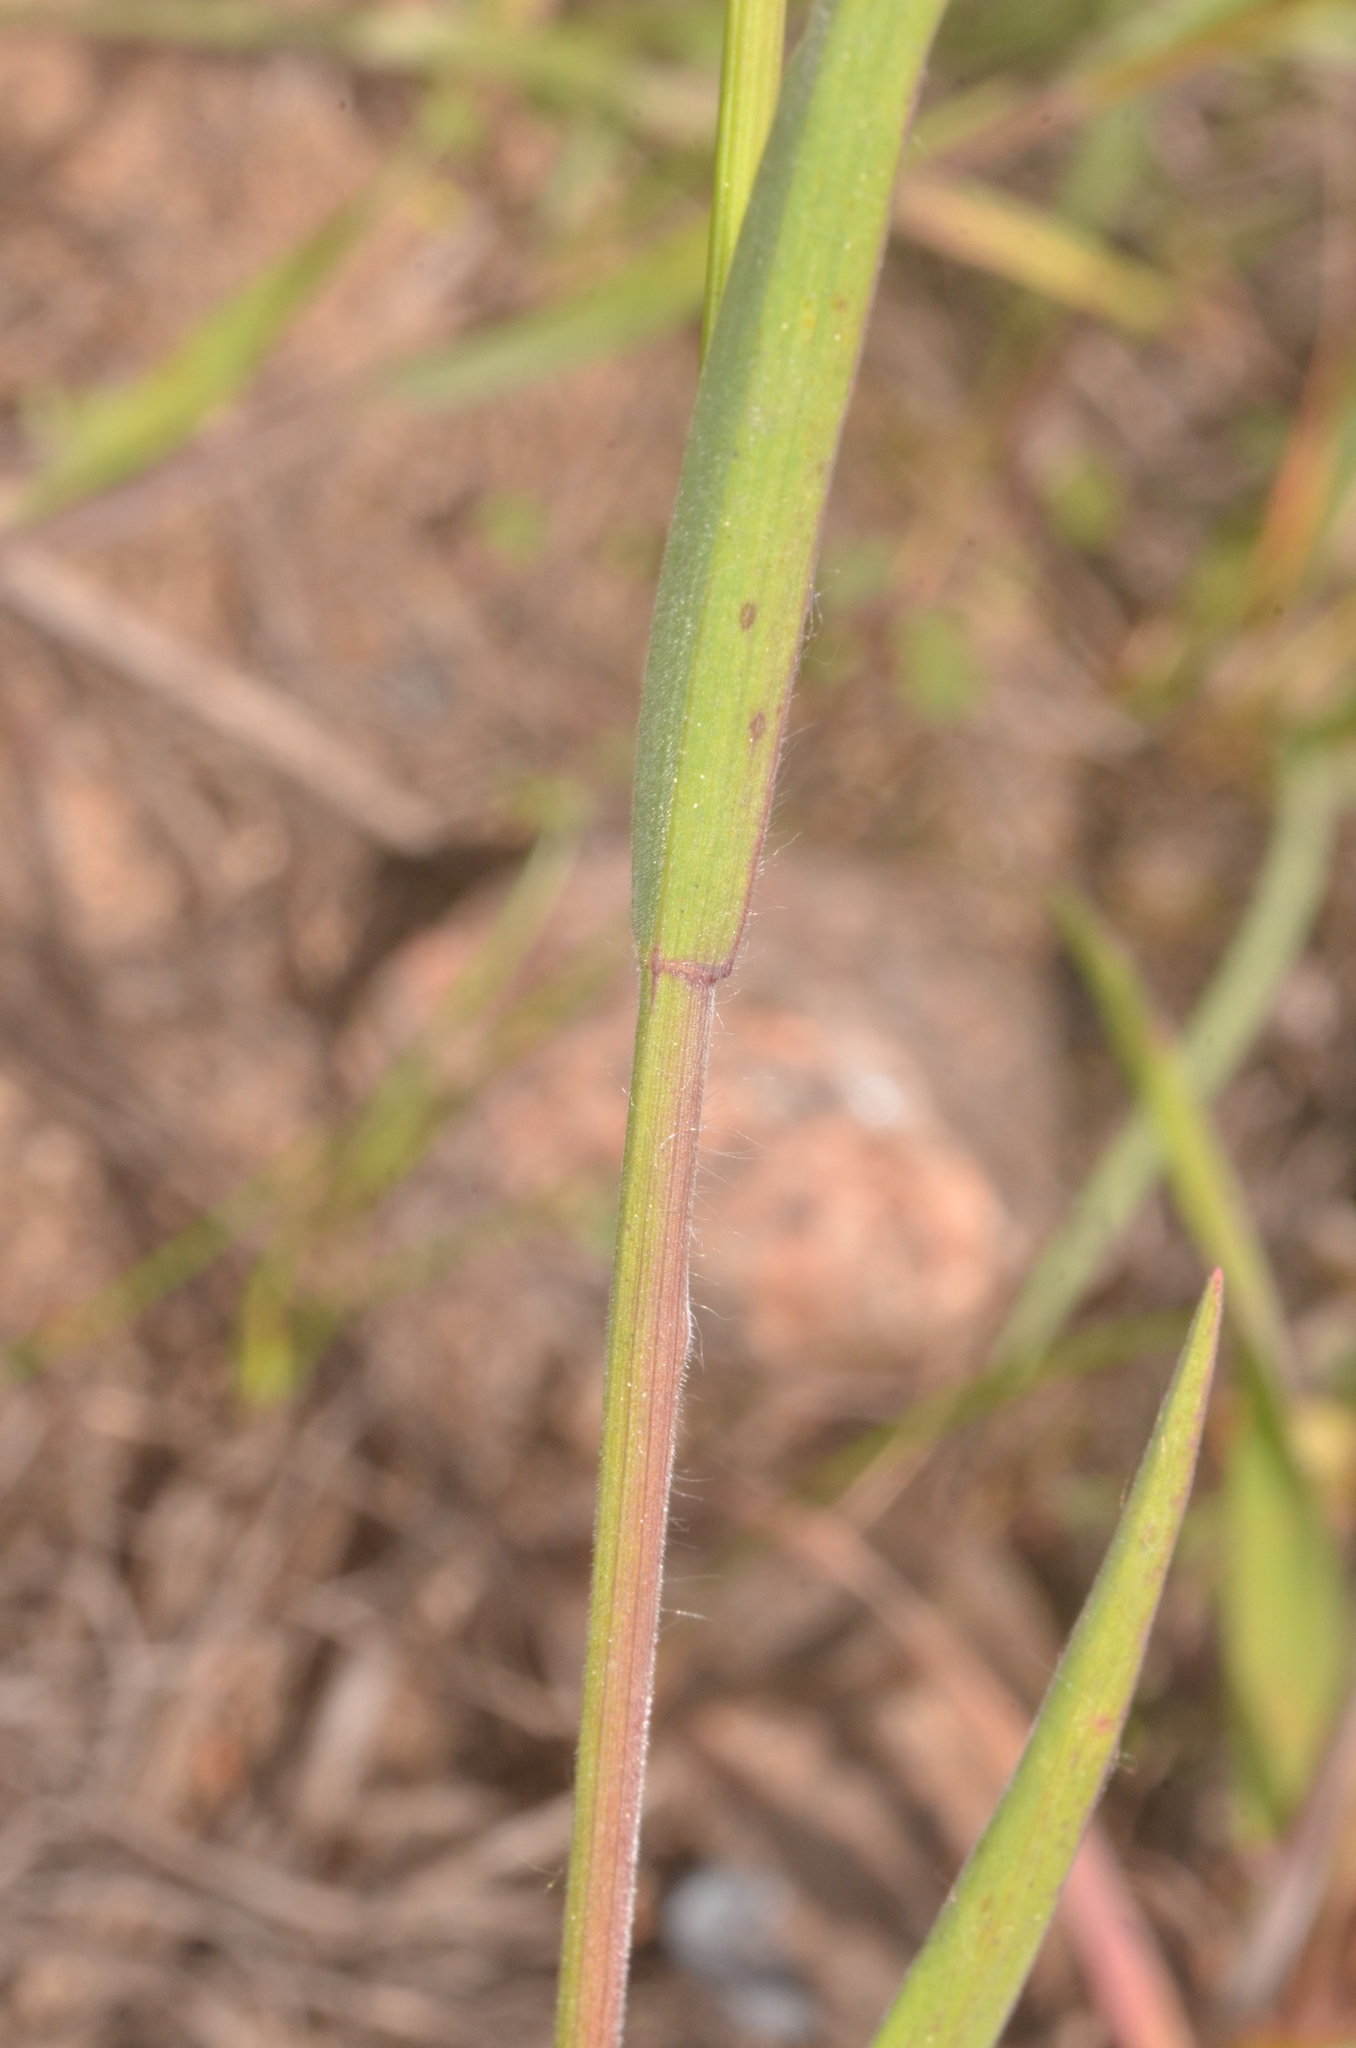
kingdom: Plantae
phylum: Tracheophyta
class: Liliopsida
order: Poales
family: Poaceae
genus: Bromus
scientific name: Bromus tectorum
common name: Cheatgrass
